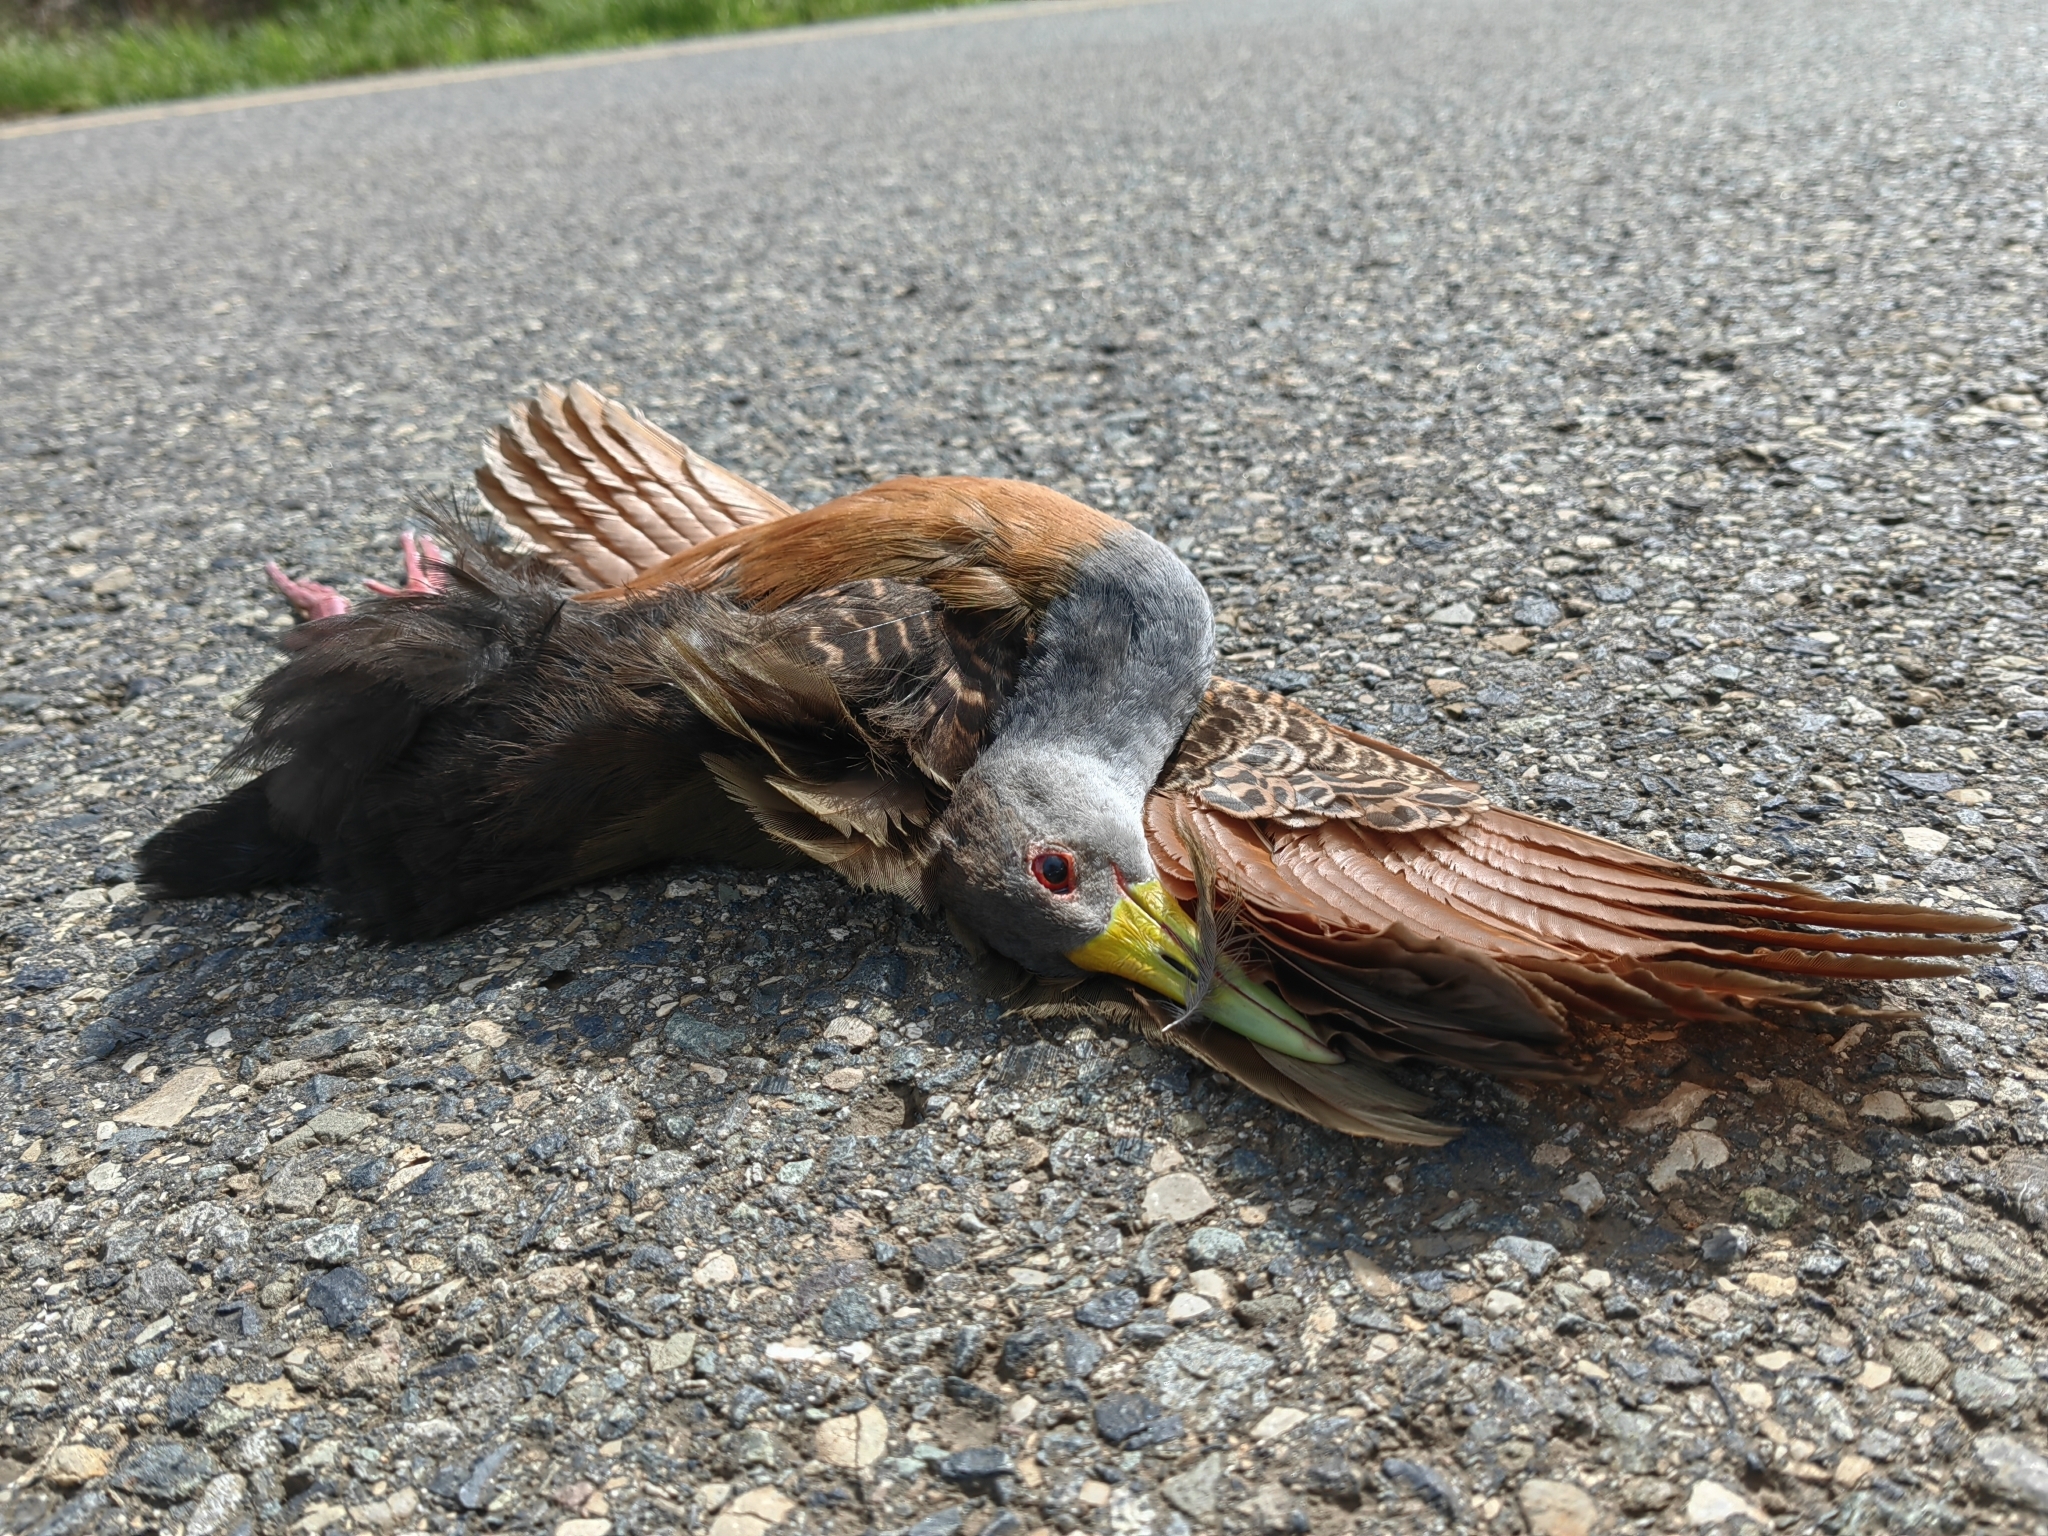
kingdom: Animalia
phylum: Chordata
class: Aves
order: Gruiformes
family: Rallidae
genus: Aramides
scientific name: Aramides cajanea
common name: Gray-necked wood-rail
